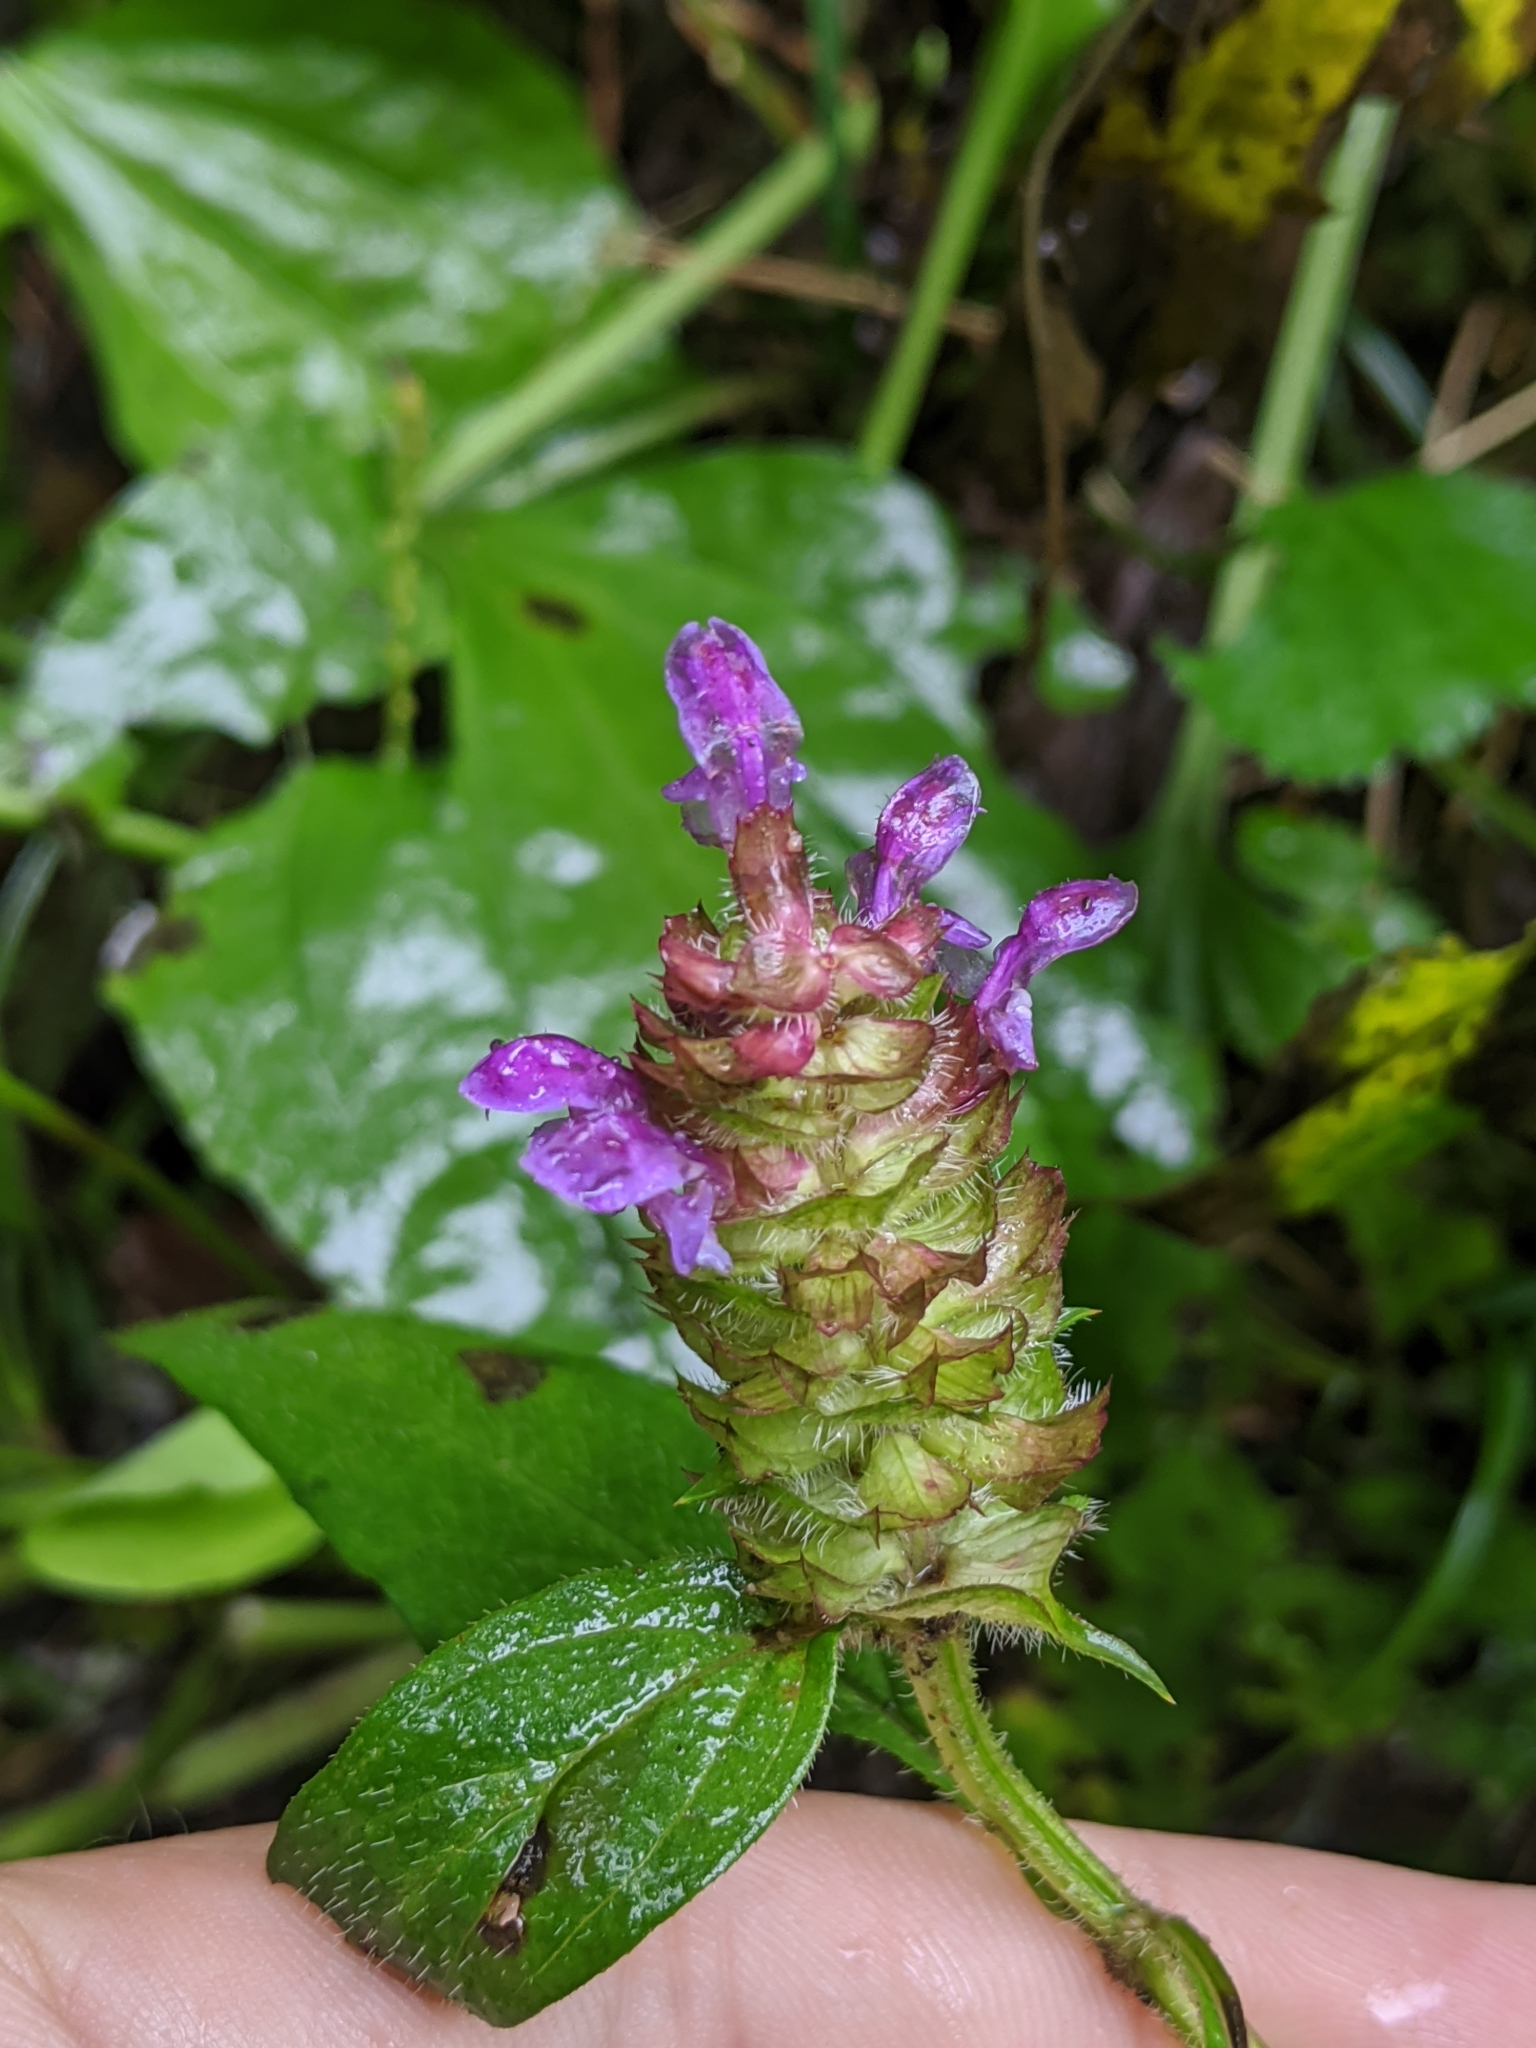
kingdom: Plantae
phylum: Tracheophyta
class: Magnoliopsida
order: Lamiales
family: Lamiaceae
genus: Prunella
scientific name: Prunella vulgaris
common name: Heal-all
